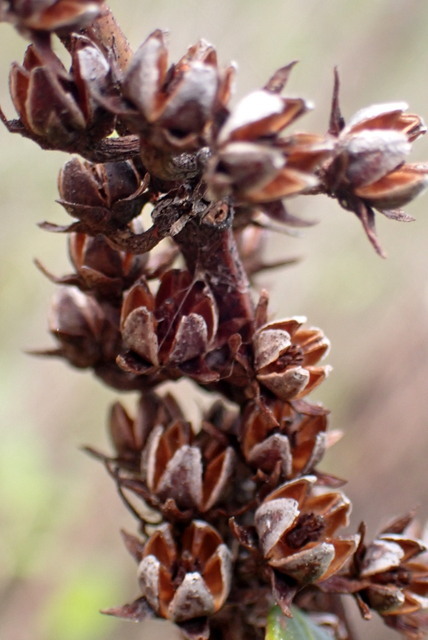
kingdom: Plantae
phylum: Tracheophyta
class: Magnoliopsida
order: Ericales
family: Ericaceae
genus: Eubotrys
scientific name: Eubotrys racemosa
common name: Fetterbush
